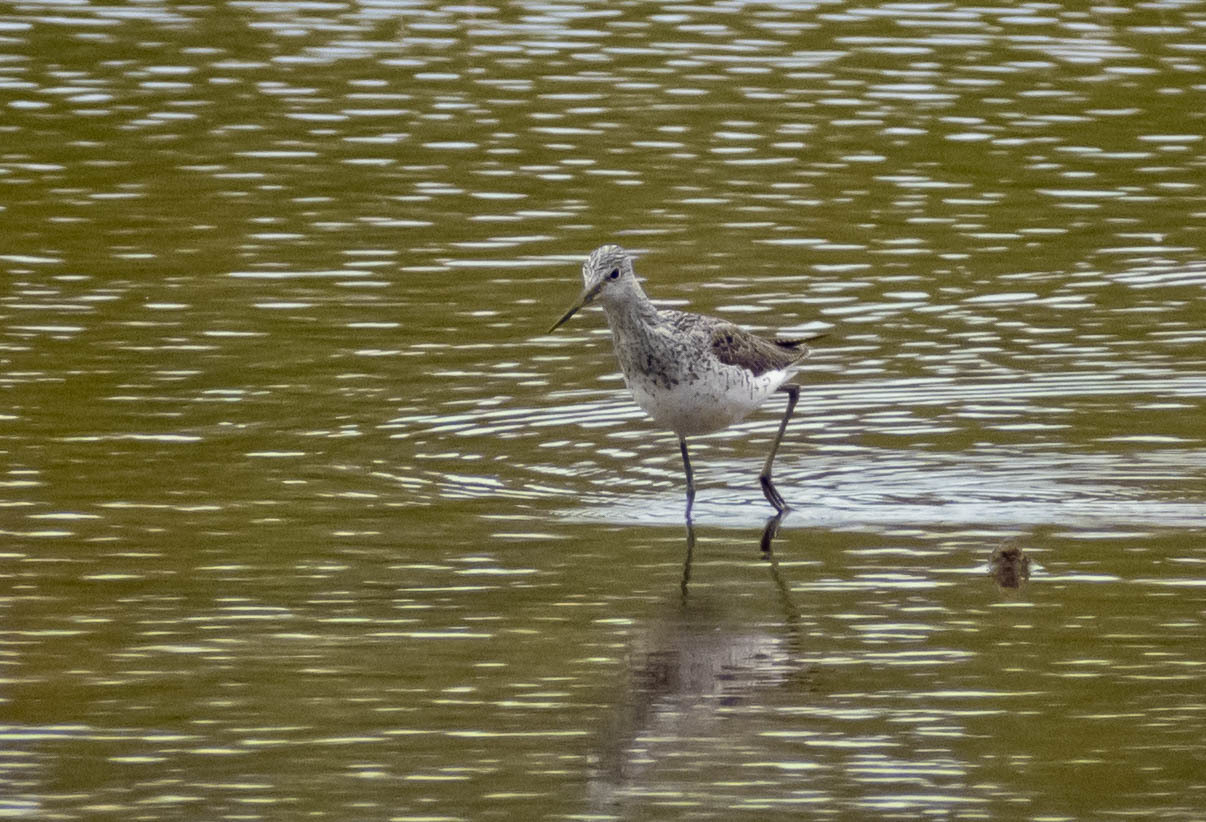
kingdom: Animalia
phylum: Chordata
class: Aves
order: Charadriiformes
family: Scolopacidae
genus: Tringa
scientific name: Tringa nebularia
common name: Common greenshank
